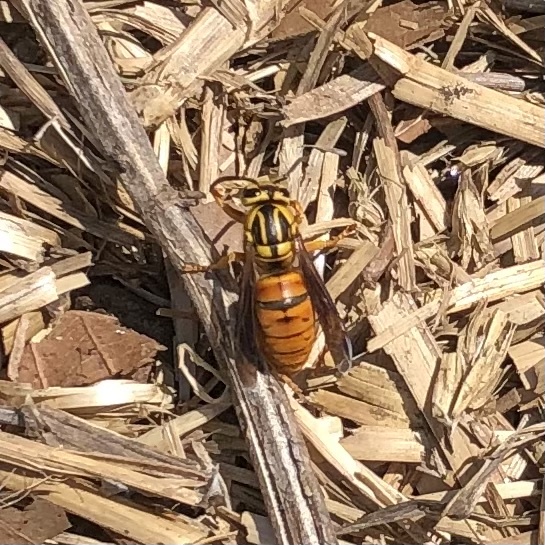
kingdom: Animalia
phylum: Arthropoda
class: Insecta
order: Hymenoptera
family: Vespidae
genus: Vespula
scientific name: Vespula squamosa
